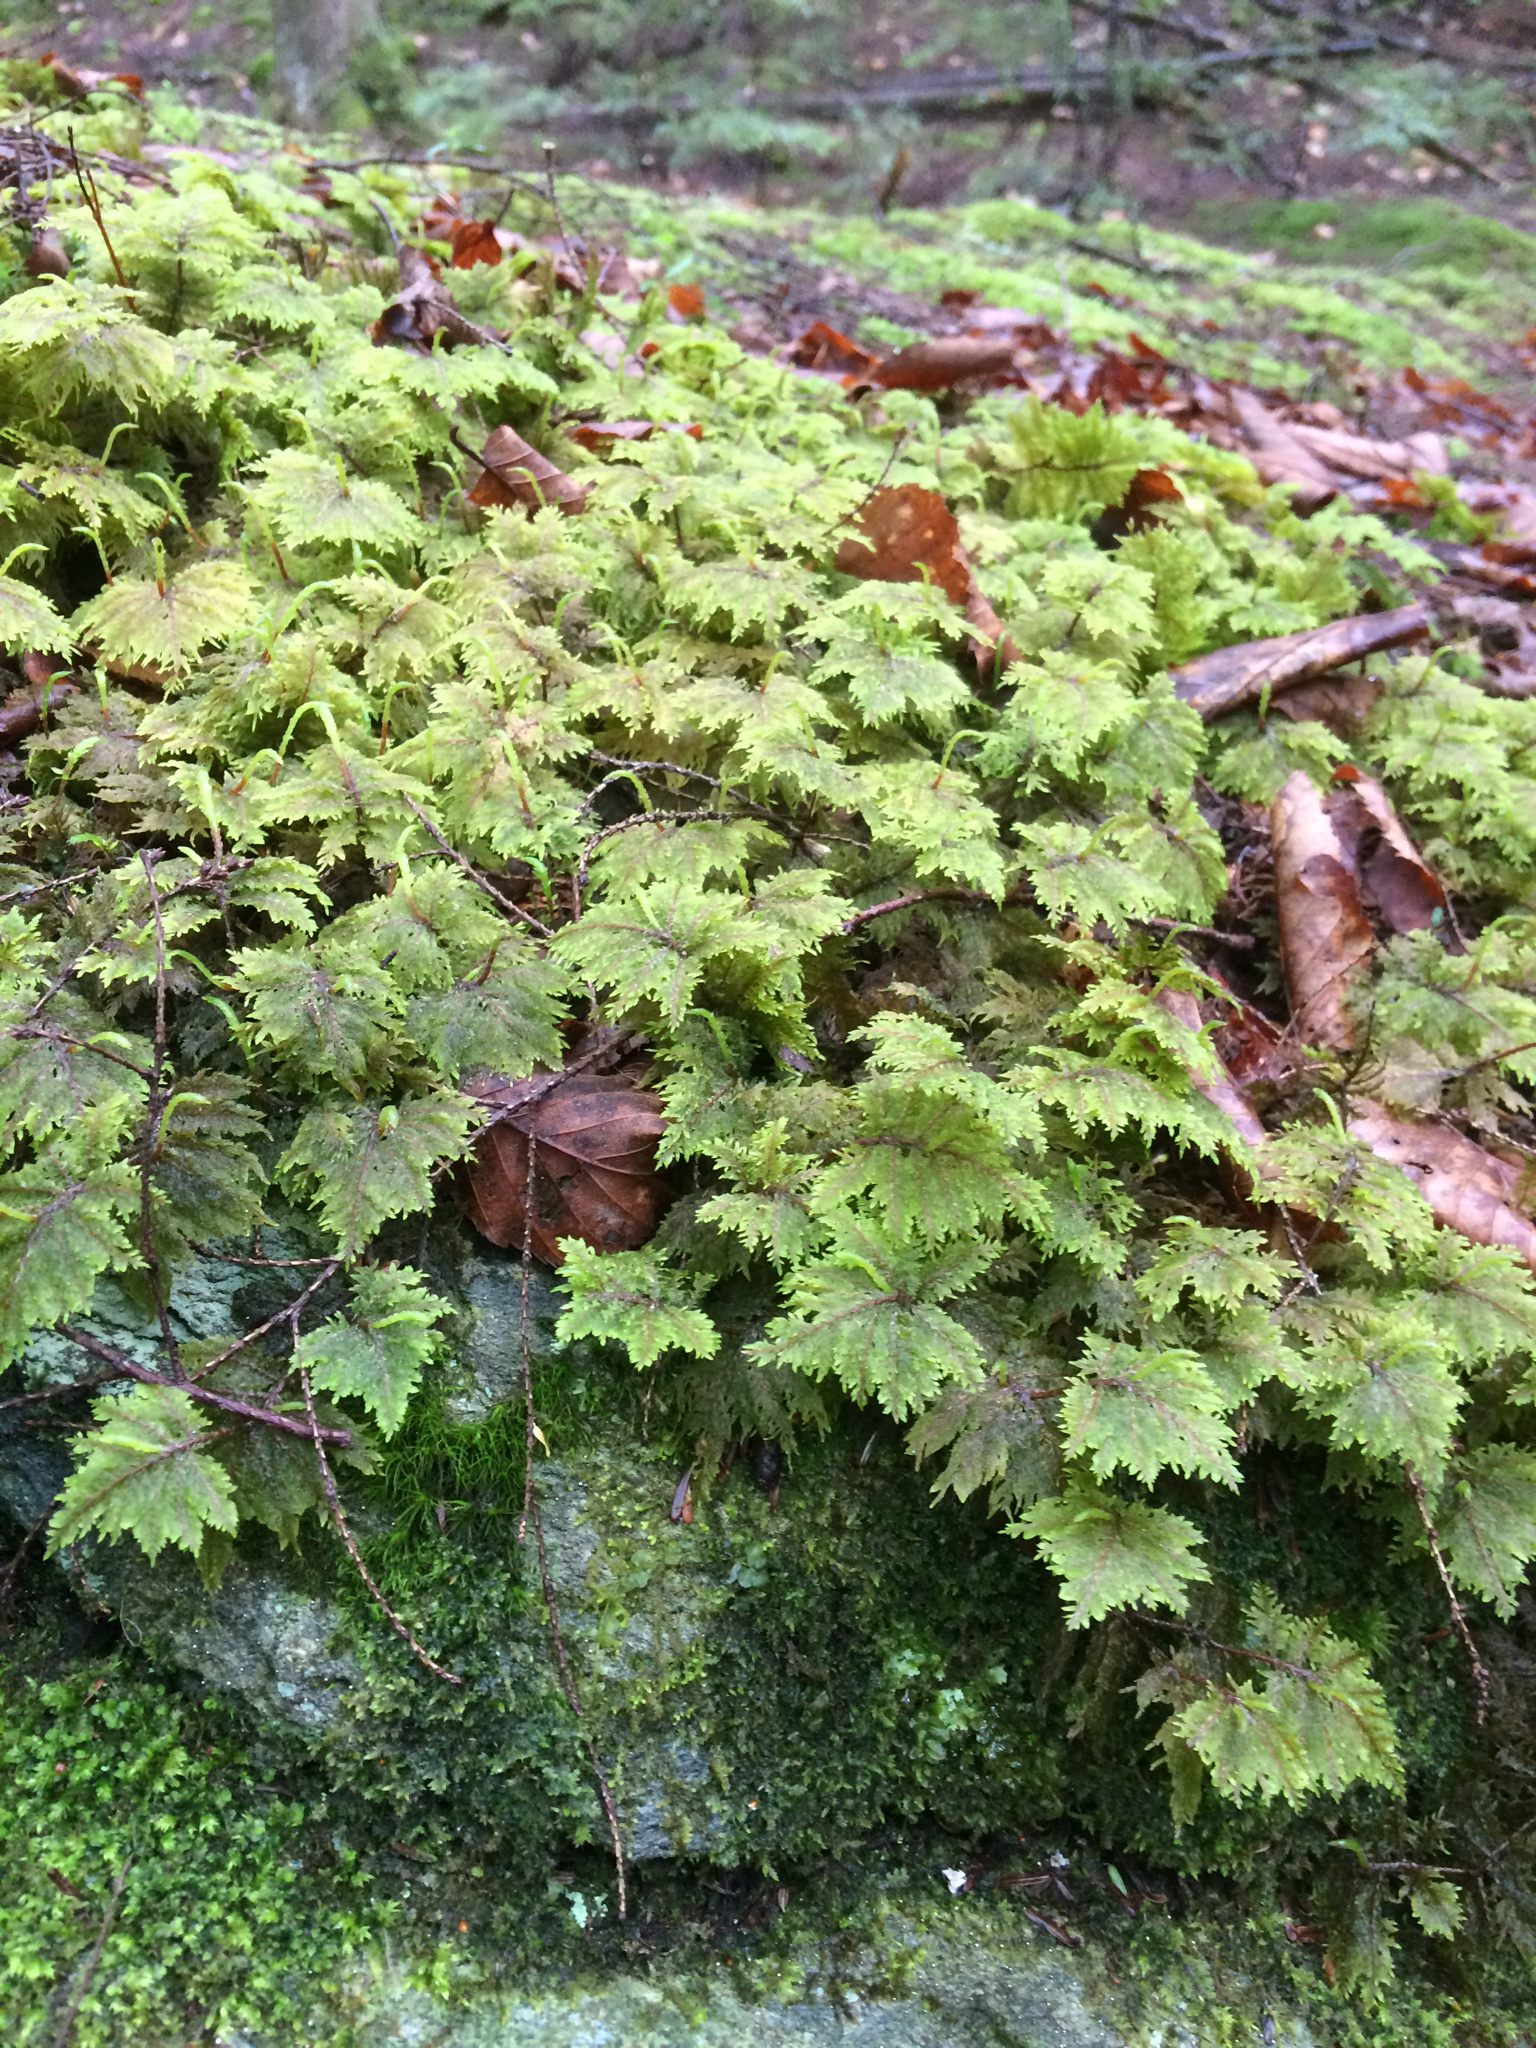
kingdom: Plantae
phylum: Bryophyta
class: Bryopsida
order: Hypnales
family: Hylocomiaceae
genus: Hylocomium
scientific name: Hylocomium splendens
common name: Stairstep moss
